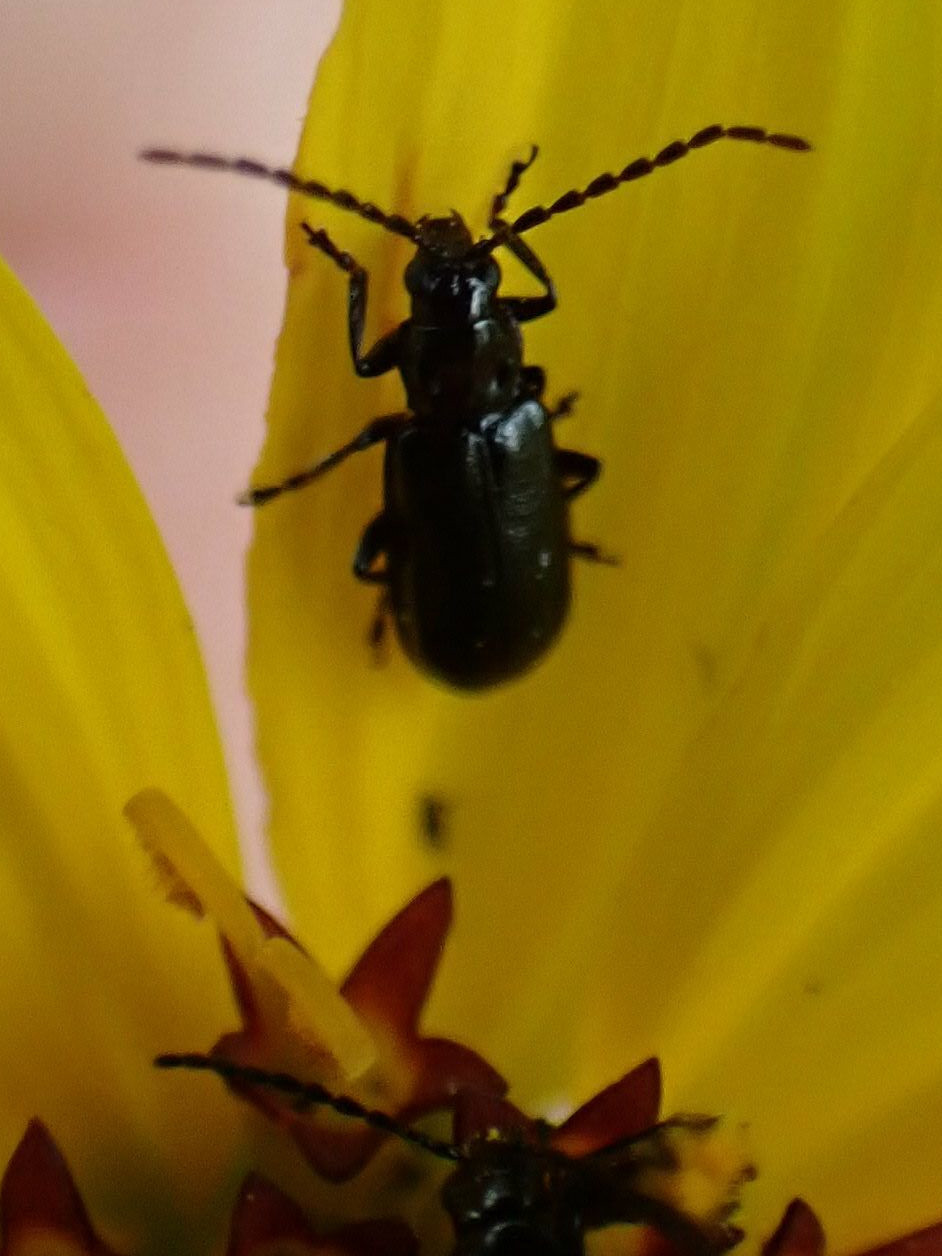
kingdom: Animalia
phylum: Arthropoda
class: Insecta
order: Coleoptera
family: Chrysomelidae
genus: Diabrotica
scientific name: Diabrotica cristata
